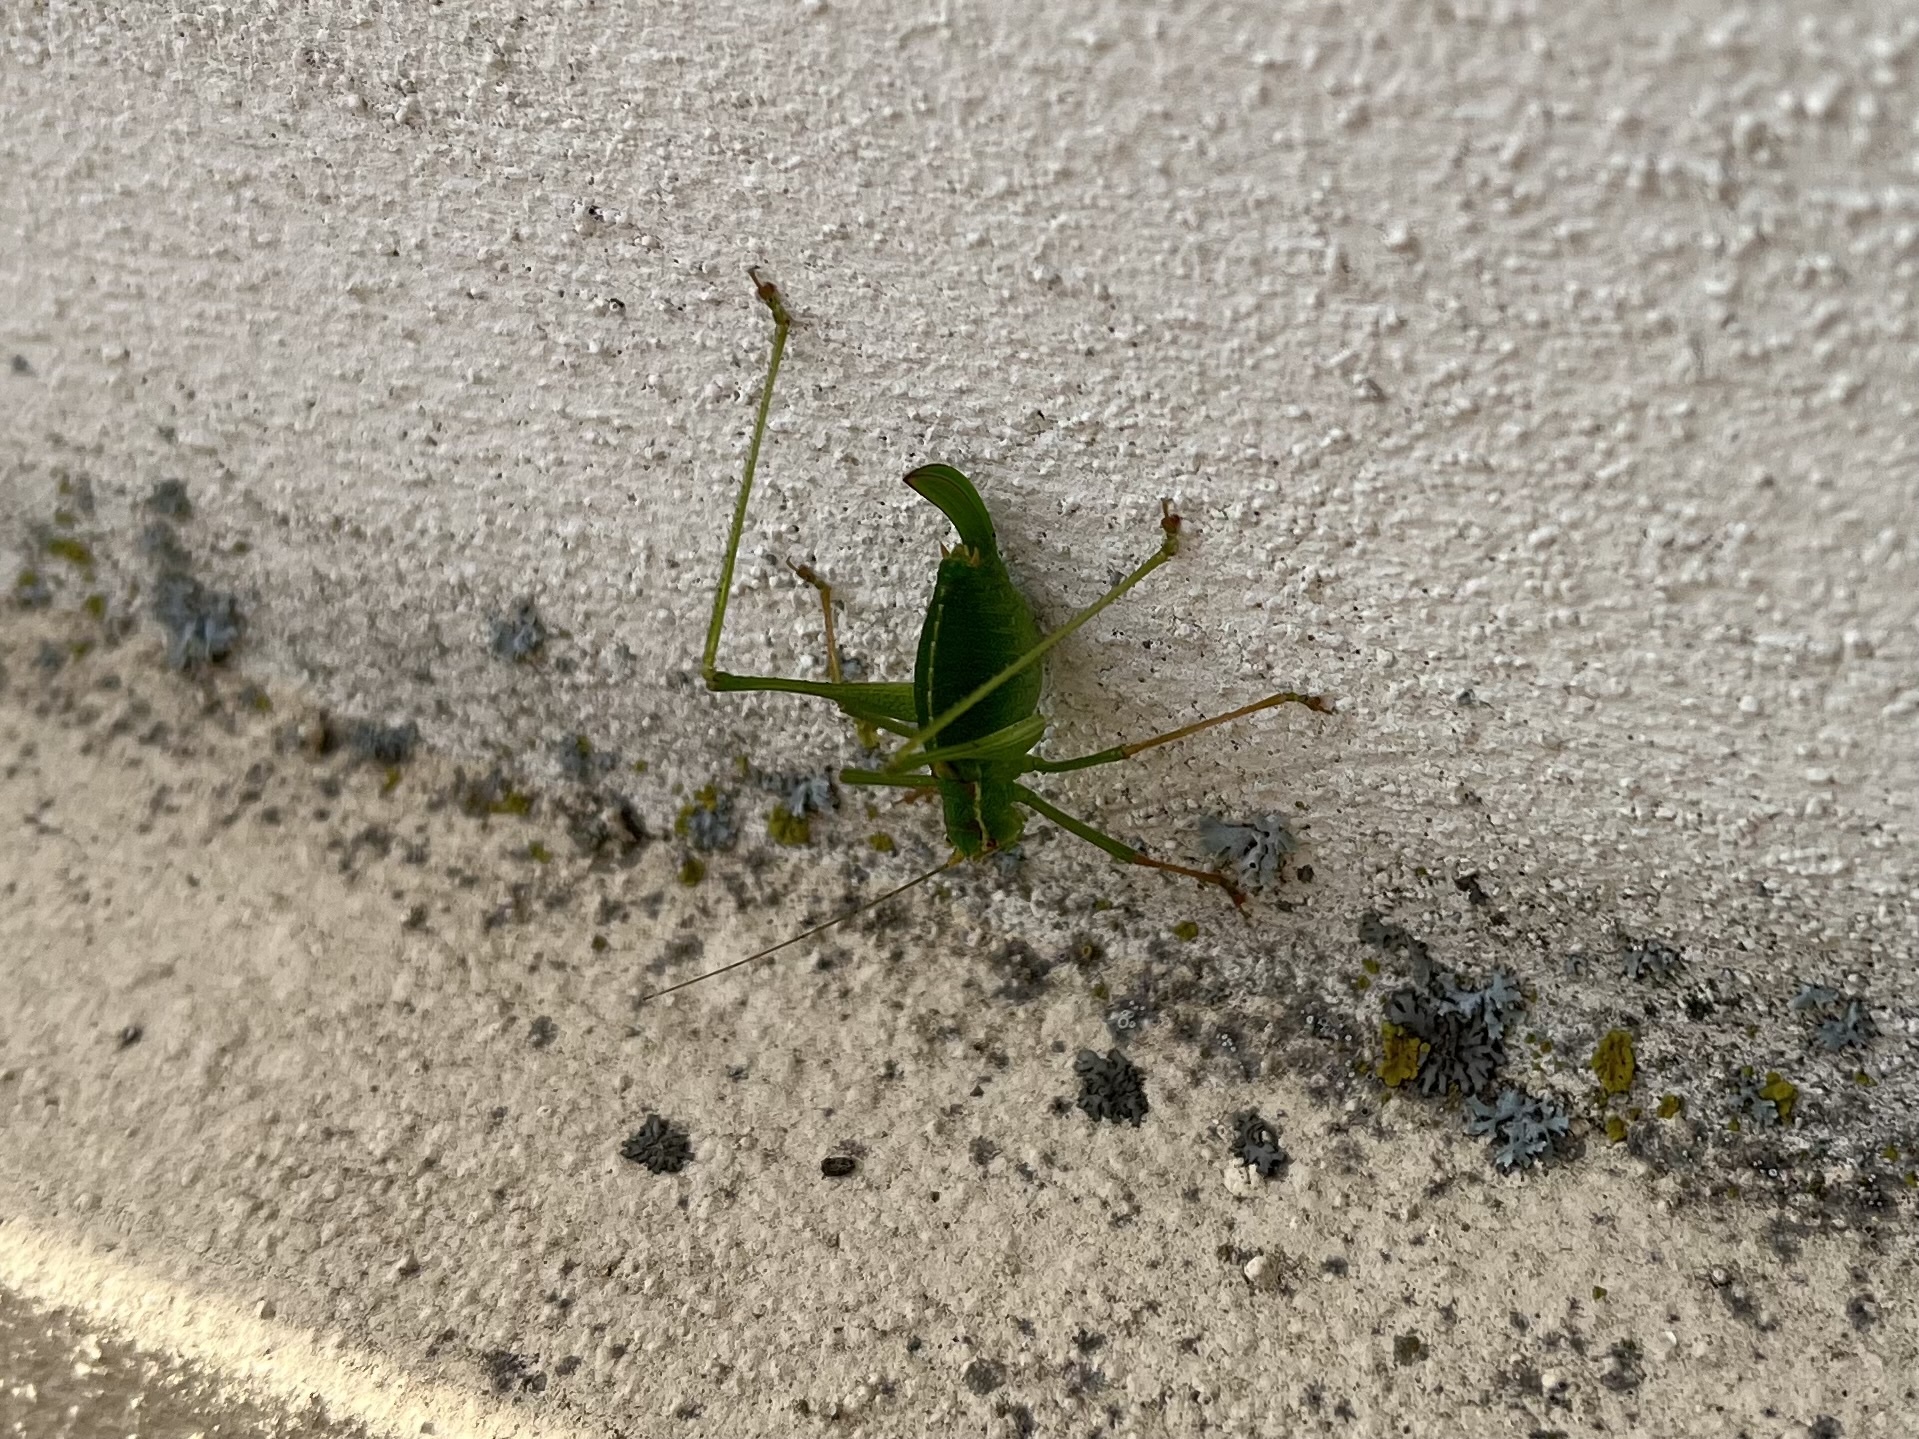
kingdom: Animalia
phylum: Arthropoda
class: Insecta
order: Orthoptera
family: Tettigoniidae
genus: Leptophyes
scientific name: Leptophyes punctatissima
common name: Speckled bush-cricket
